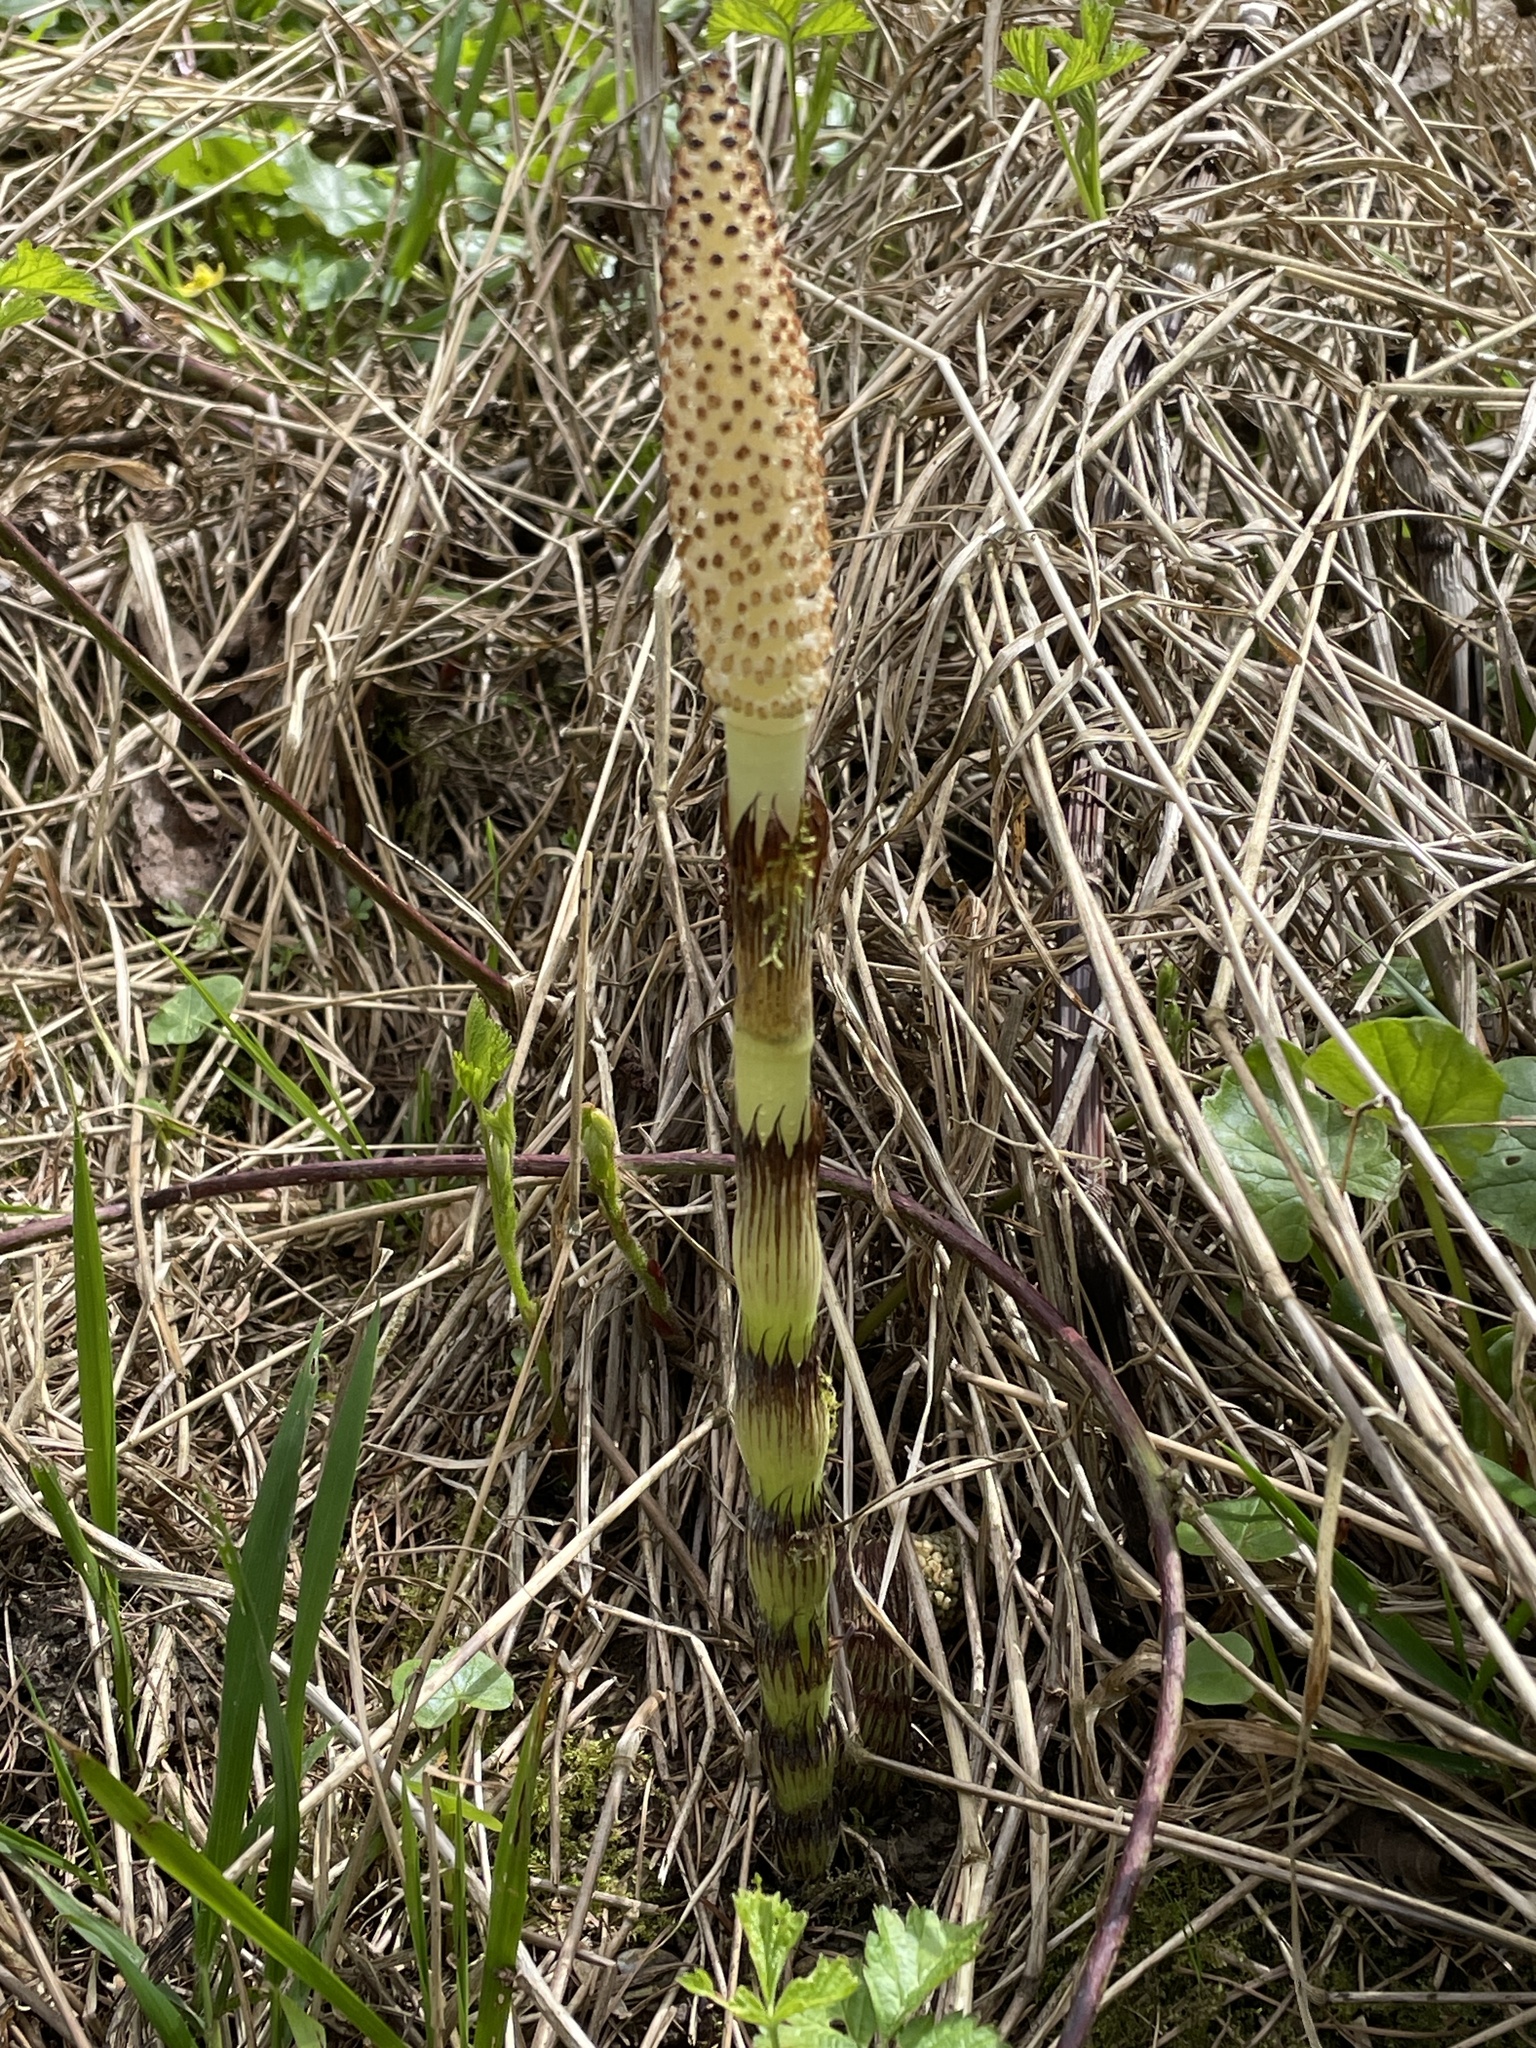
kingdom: Plantae
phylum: Tracheophyta
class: Polypodiopsida
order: Equisetales
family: Equisetaceae
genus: Equisetum
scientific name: Equisetum telmateia
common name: Great horsetail
